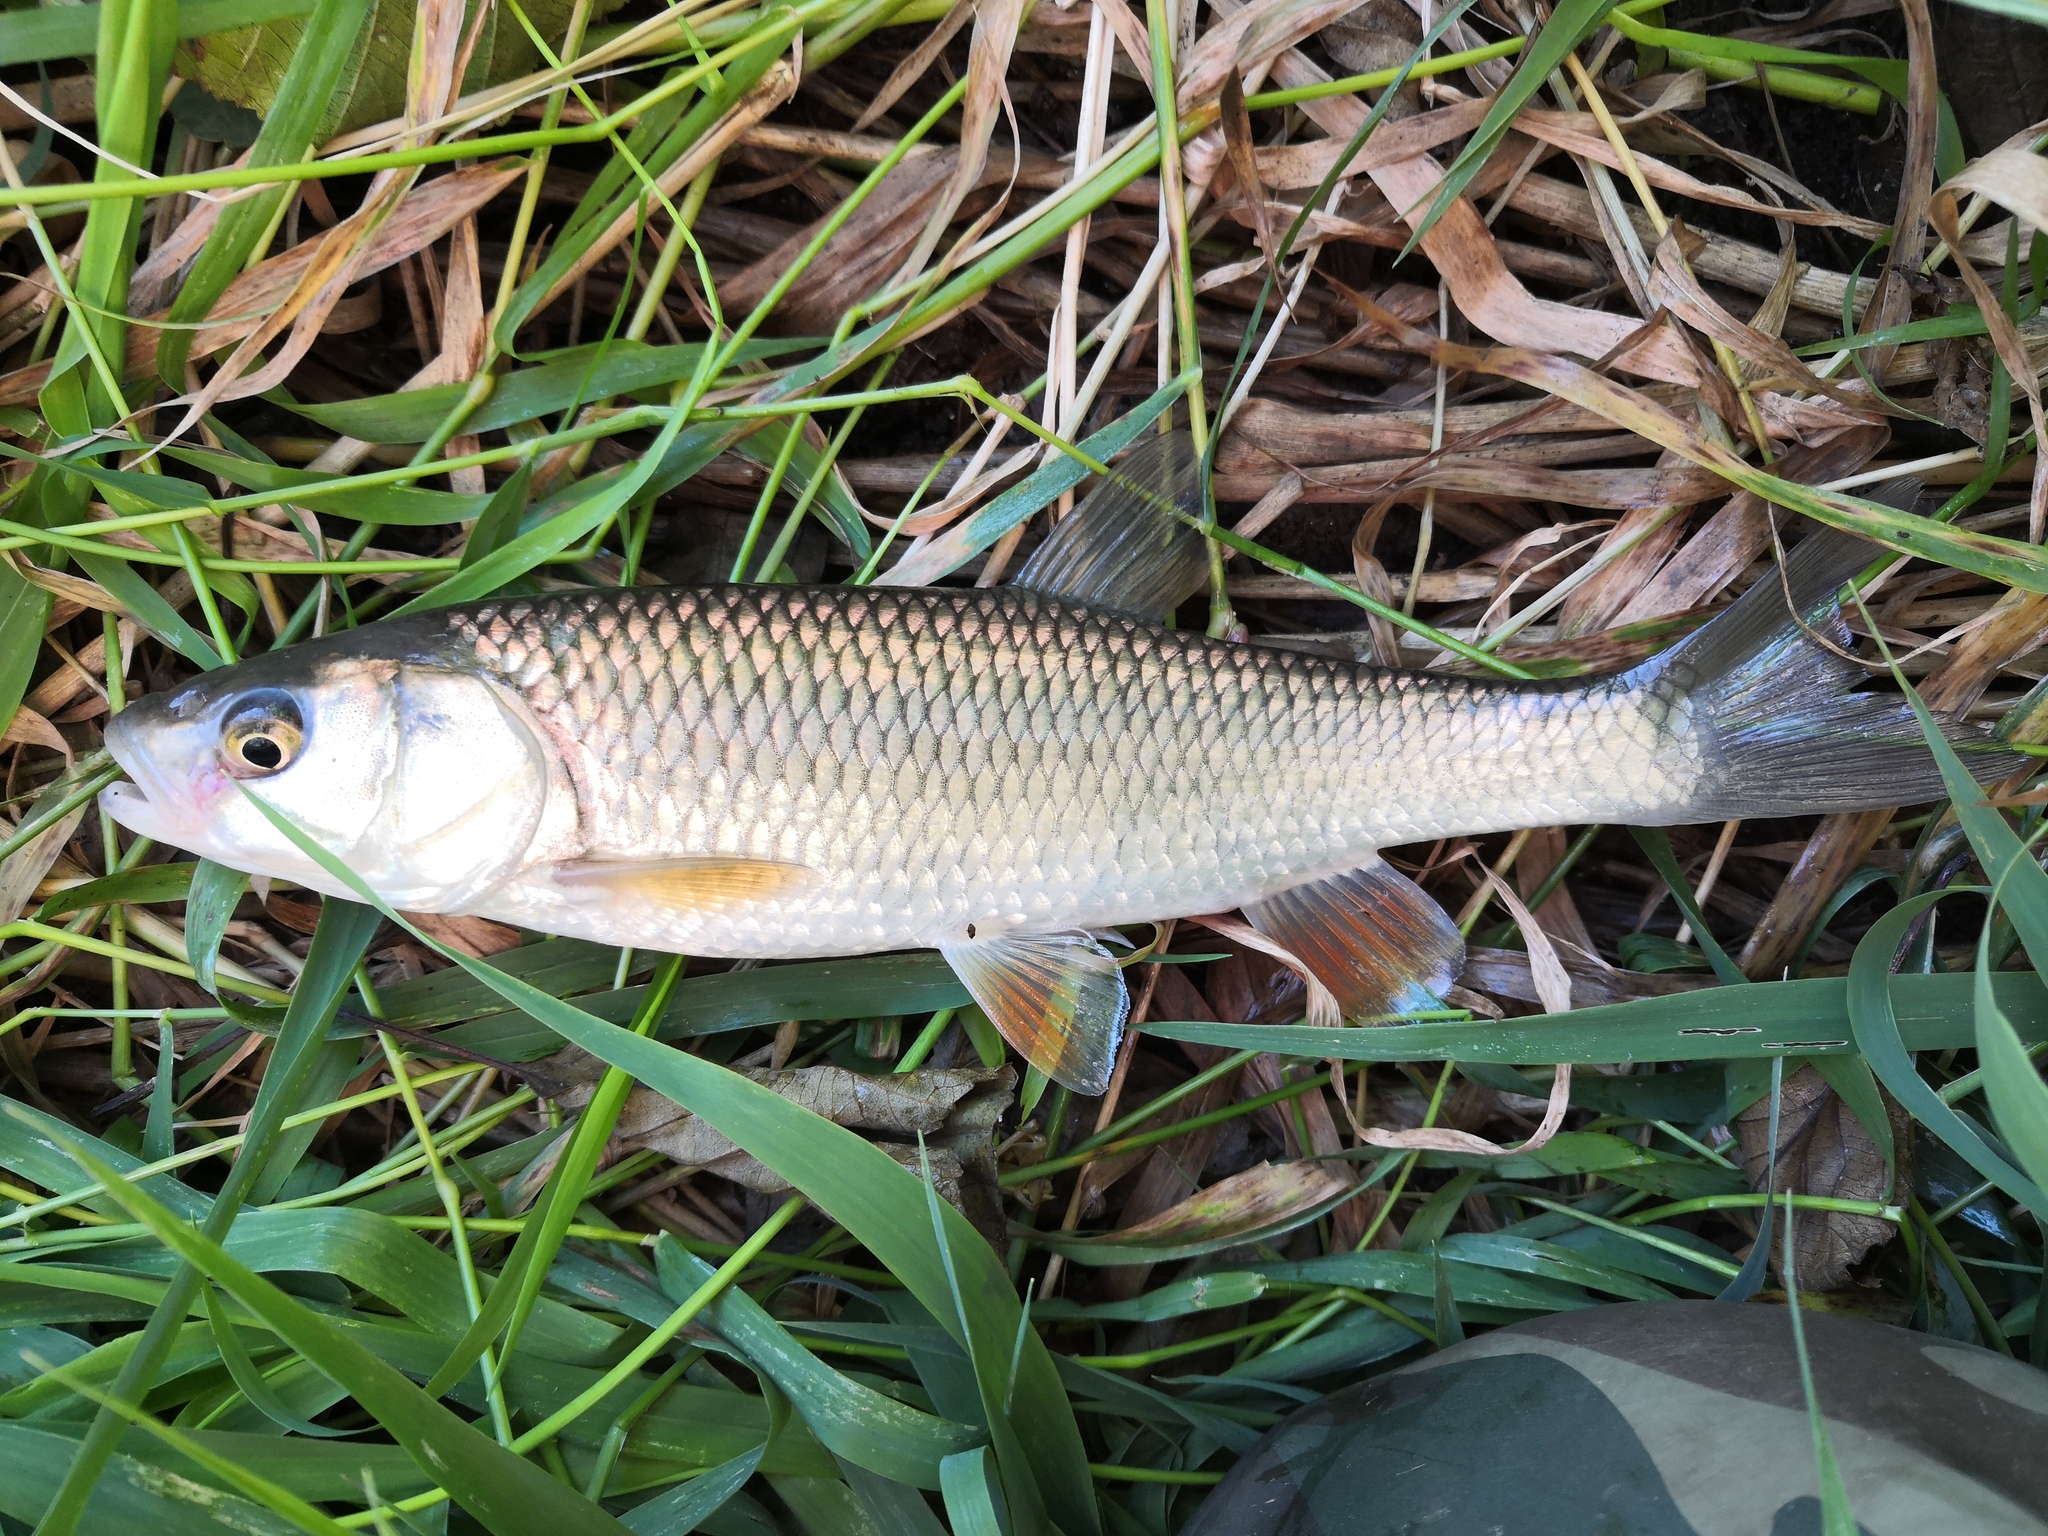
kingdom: Animalia
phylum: Chordata
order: Cypriniformes
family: Cyprinidae
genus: Squalius
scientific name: Squalius cephalus
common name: Chub
